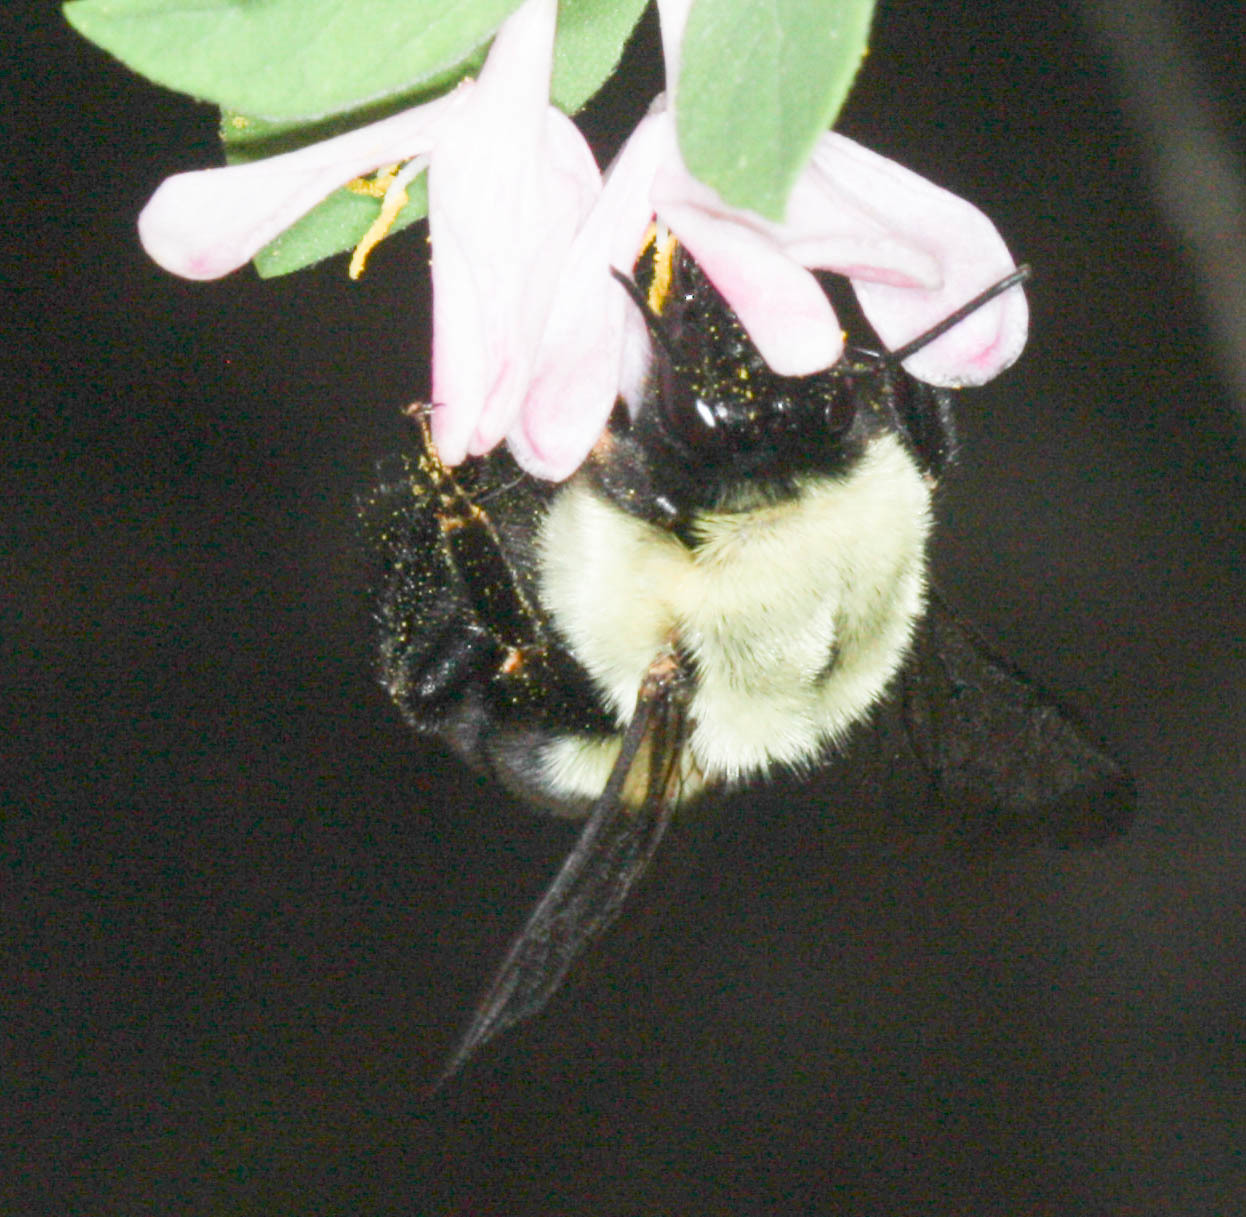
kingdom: Animalia
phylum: Arthropoda
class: Insecta
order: Hymenoptera
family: Apidae
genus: Bombus
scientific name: Bombus impatiens
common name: Common eastern bumble bee
